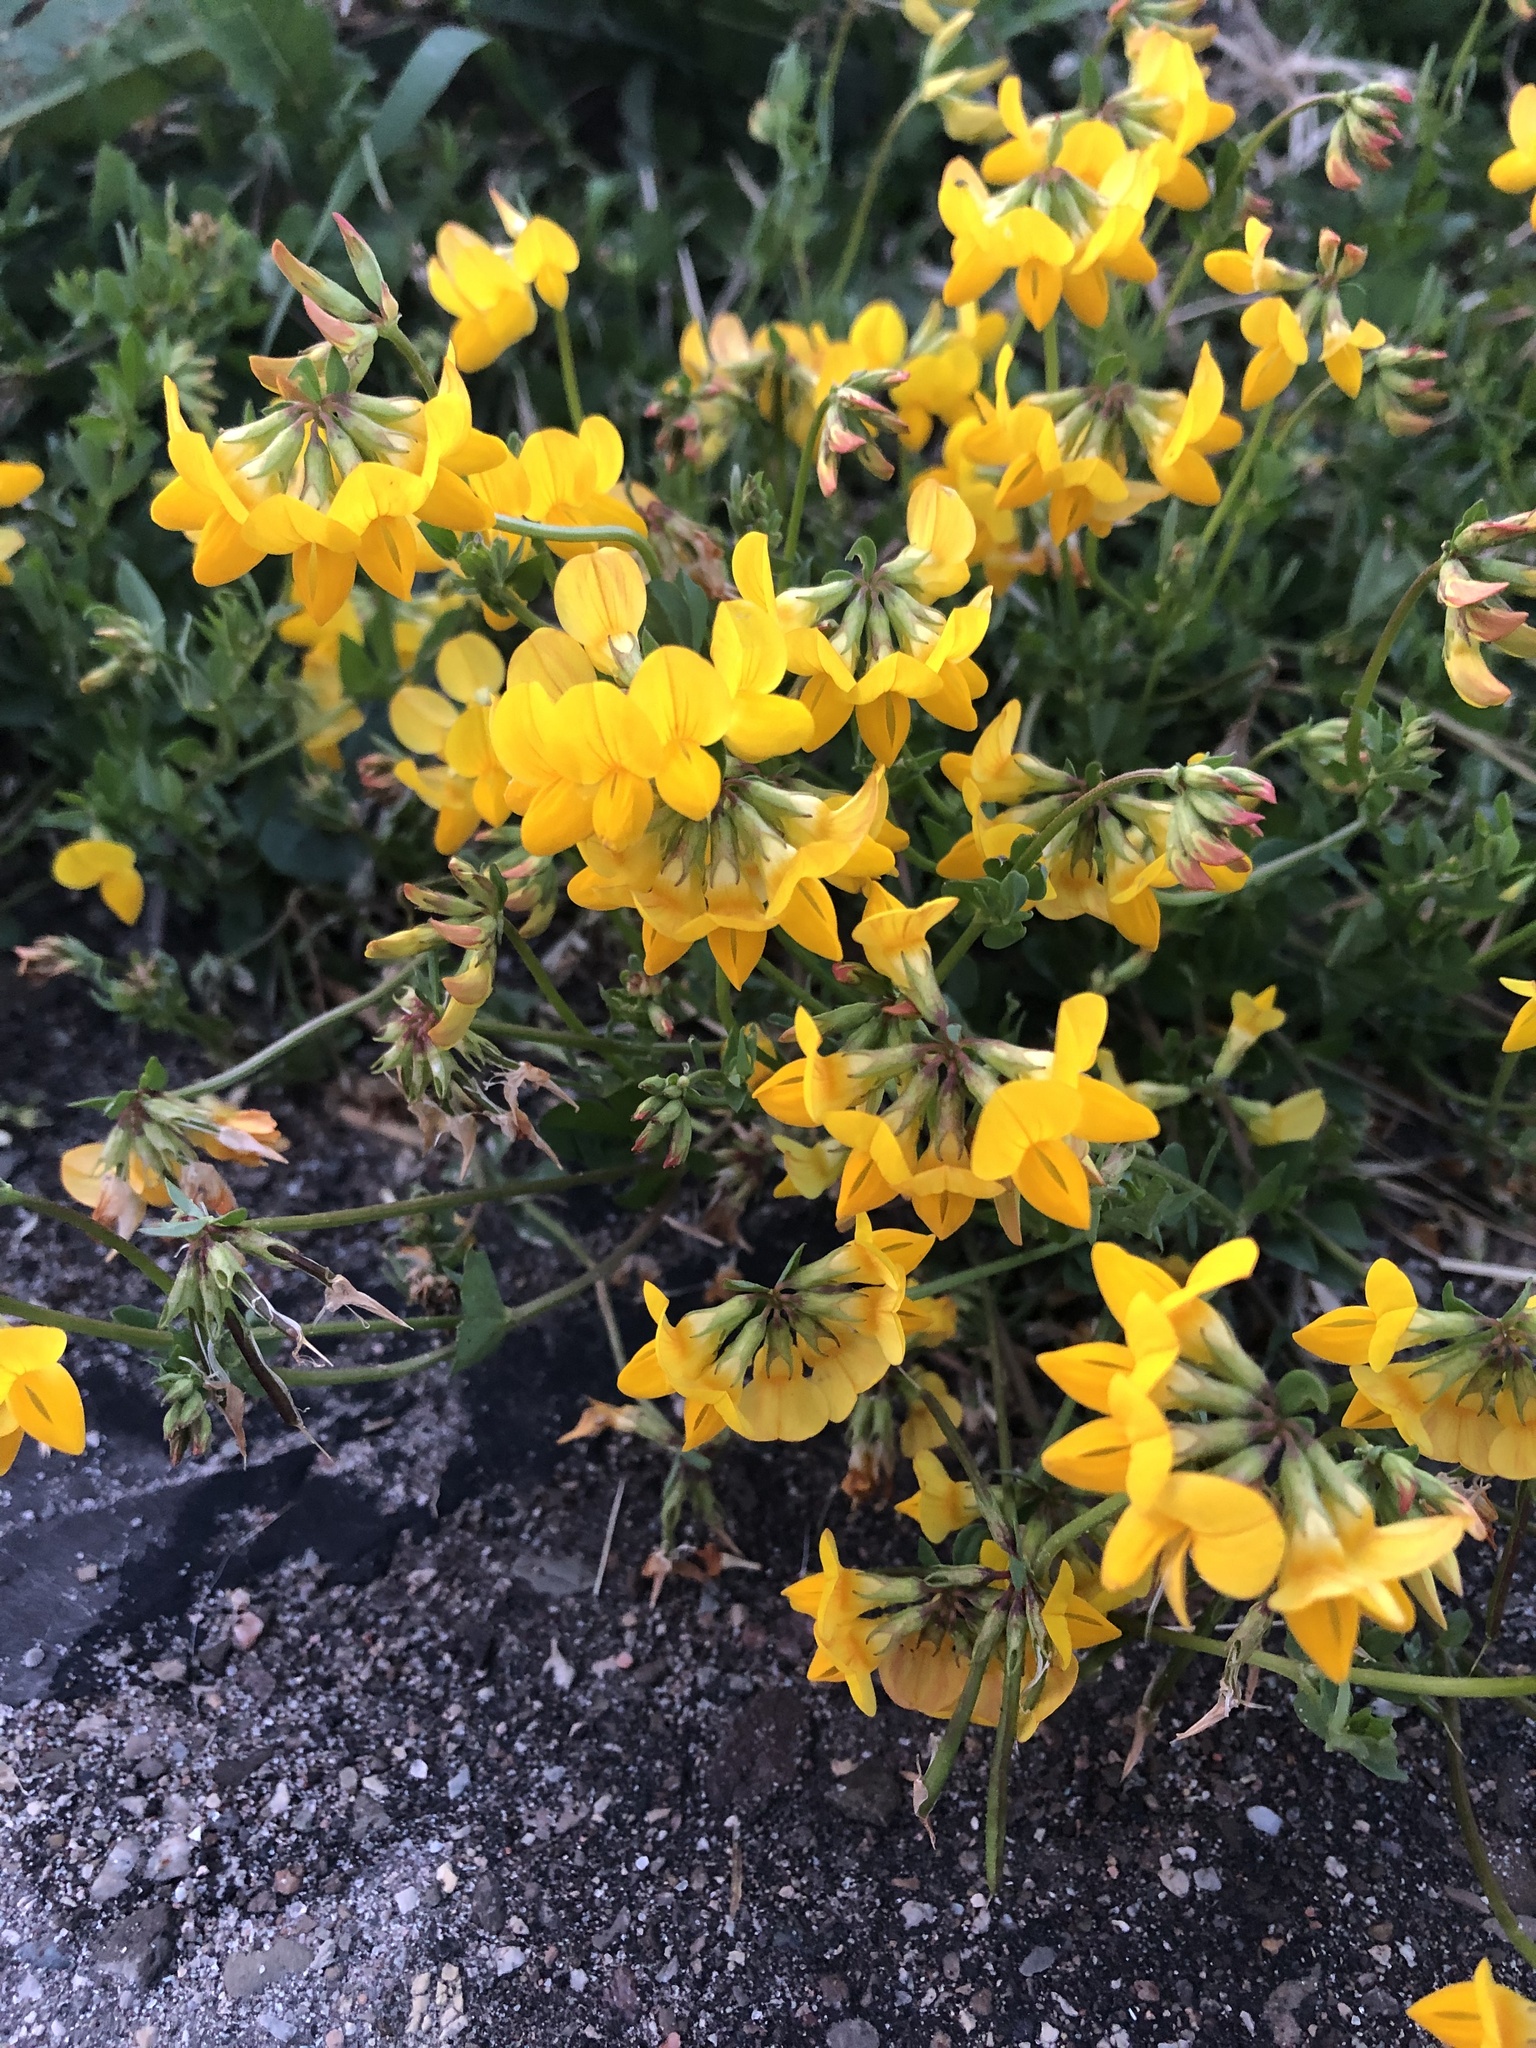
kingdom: Plantae
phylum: Tracheophyta
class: Magnoliopsida
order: Fabales
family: Fabaceae
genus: Lotus
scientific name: Lotus corniculatus
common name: Common bird's-foot-trefoil
